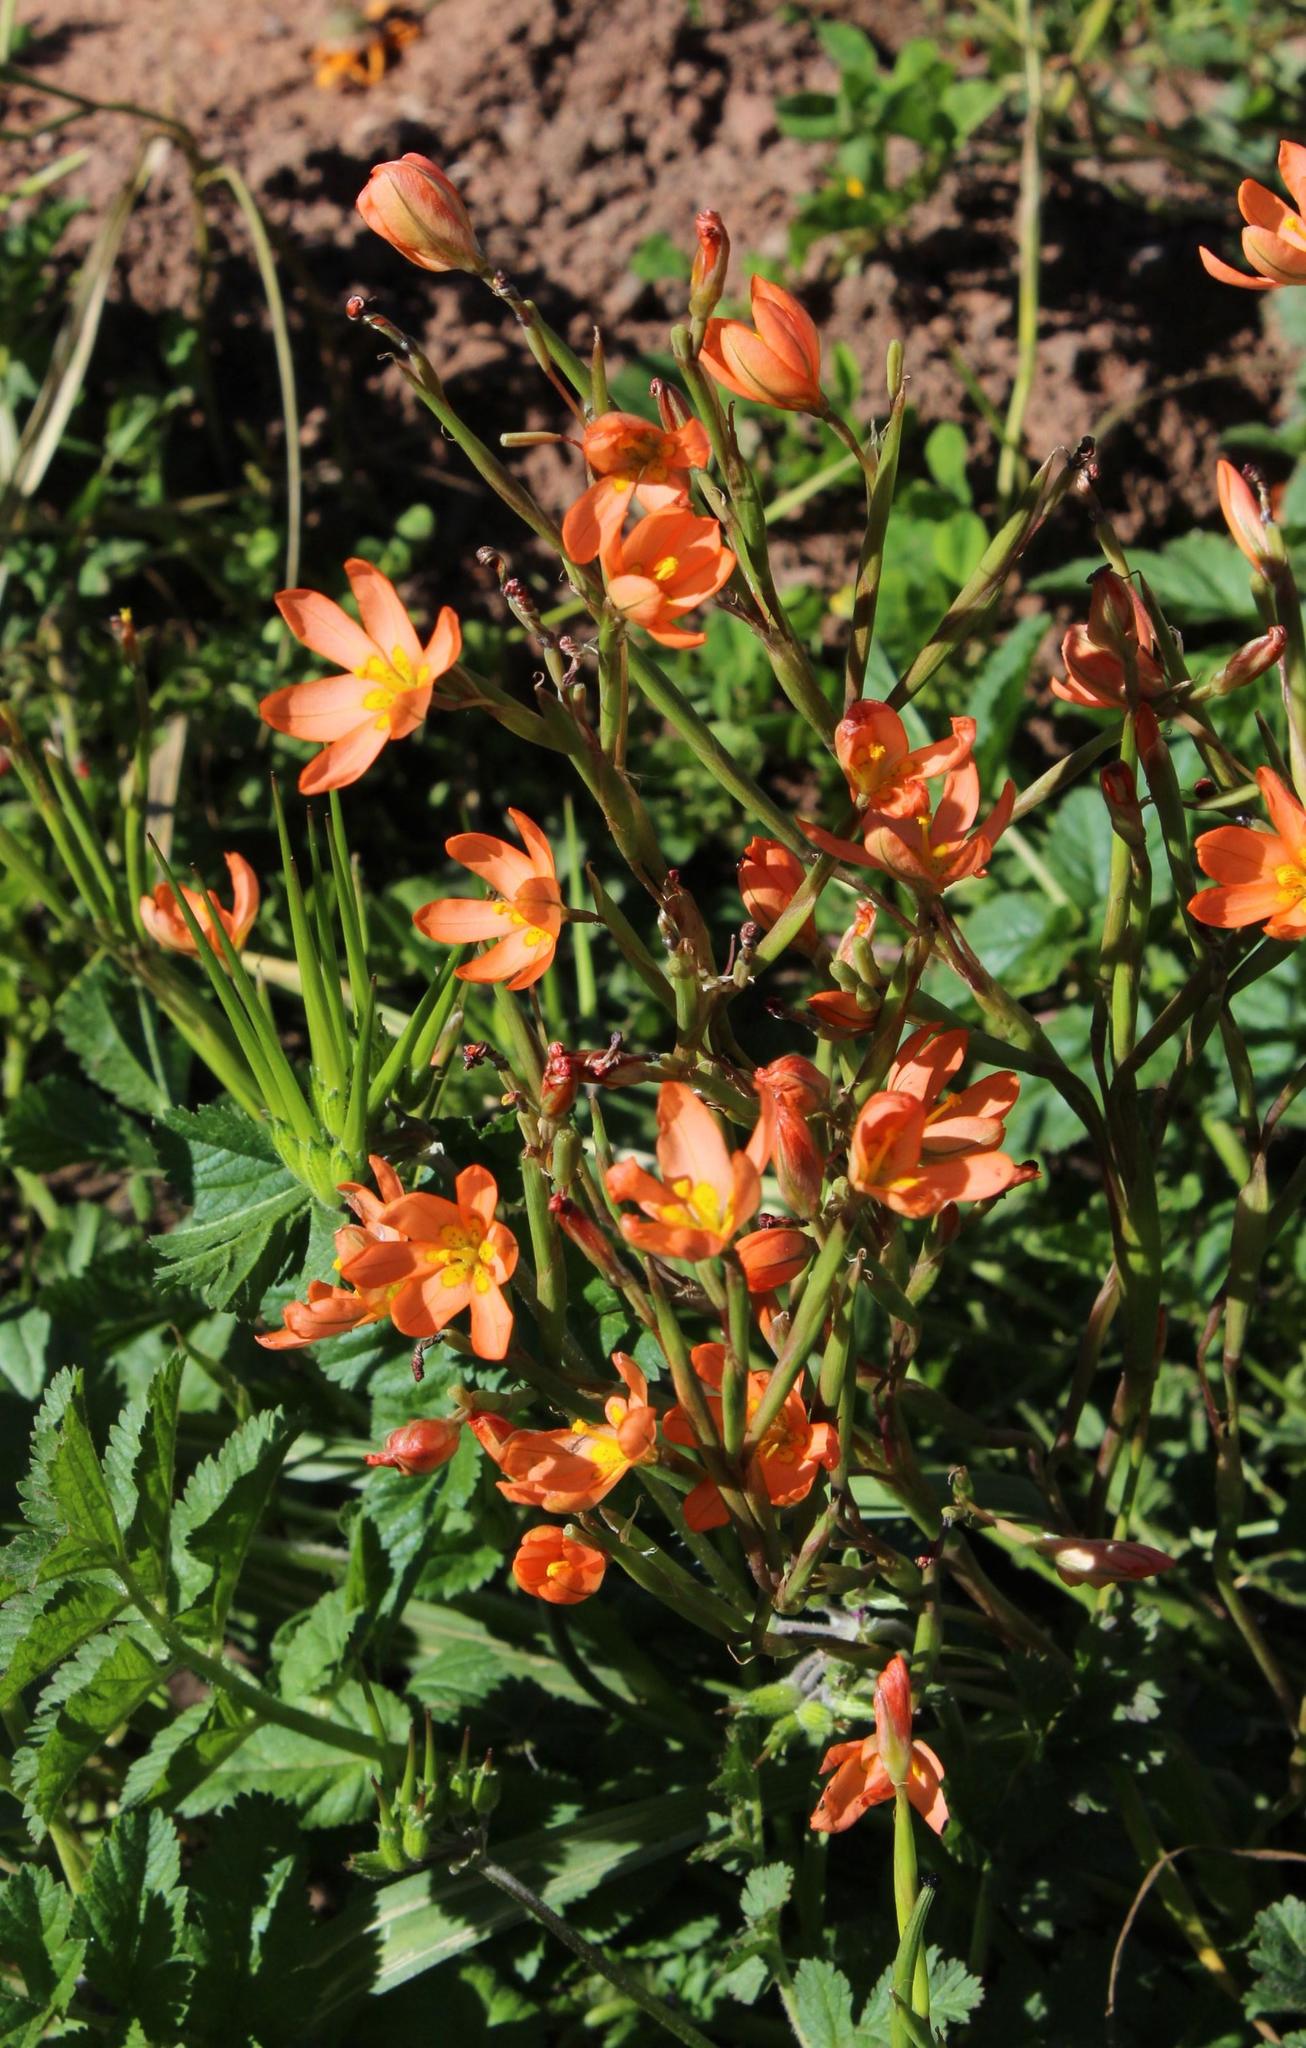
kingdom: Plantae
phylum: Tracheophyta
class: Liliopsida
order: Asparagales
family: Iridaceae
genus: Moraea
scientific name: Moraea miniata
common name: Two-leaf cape-tulip
